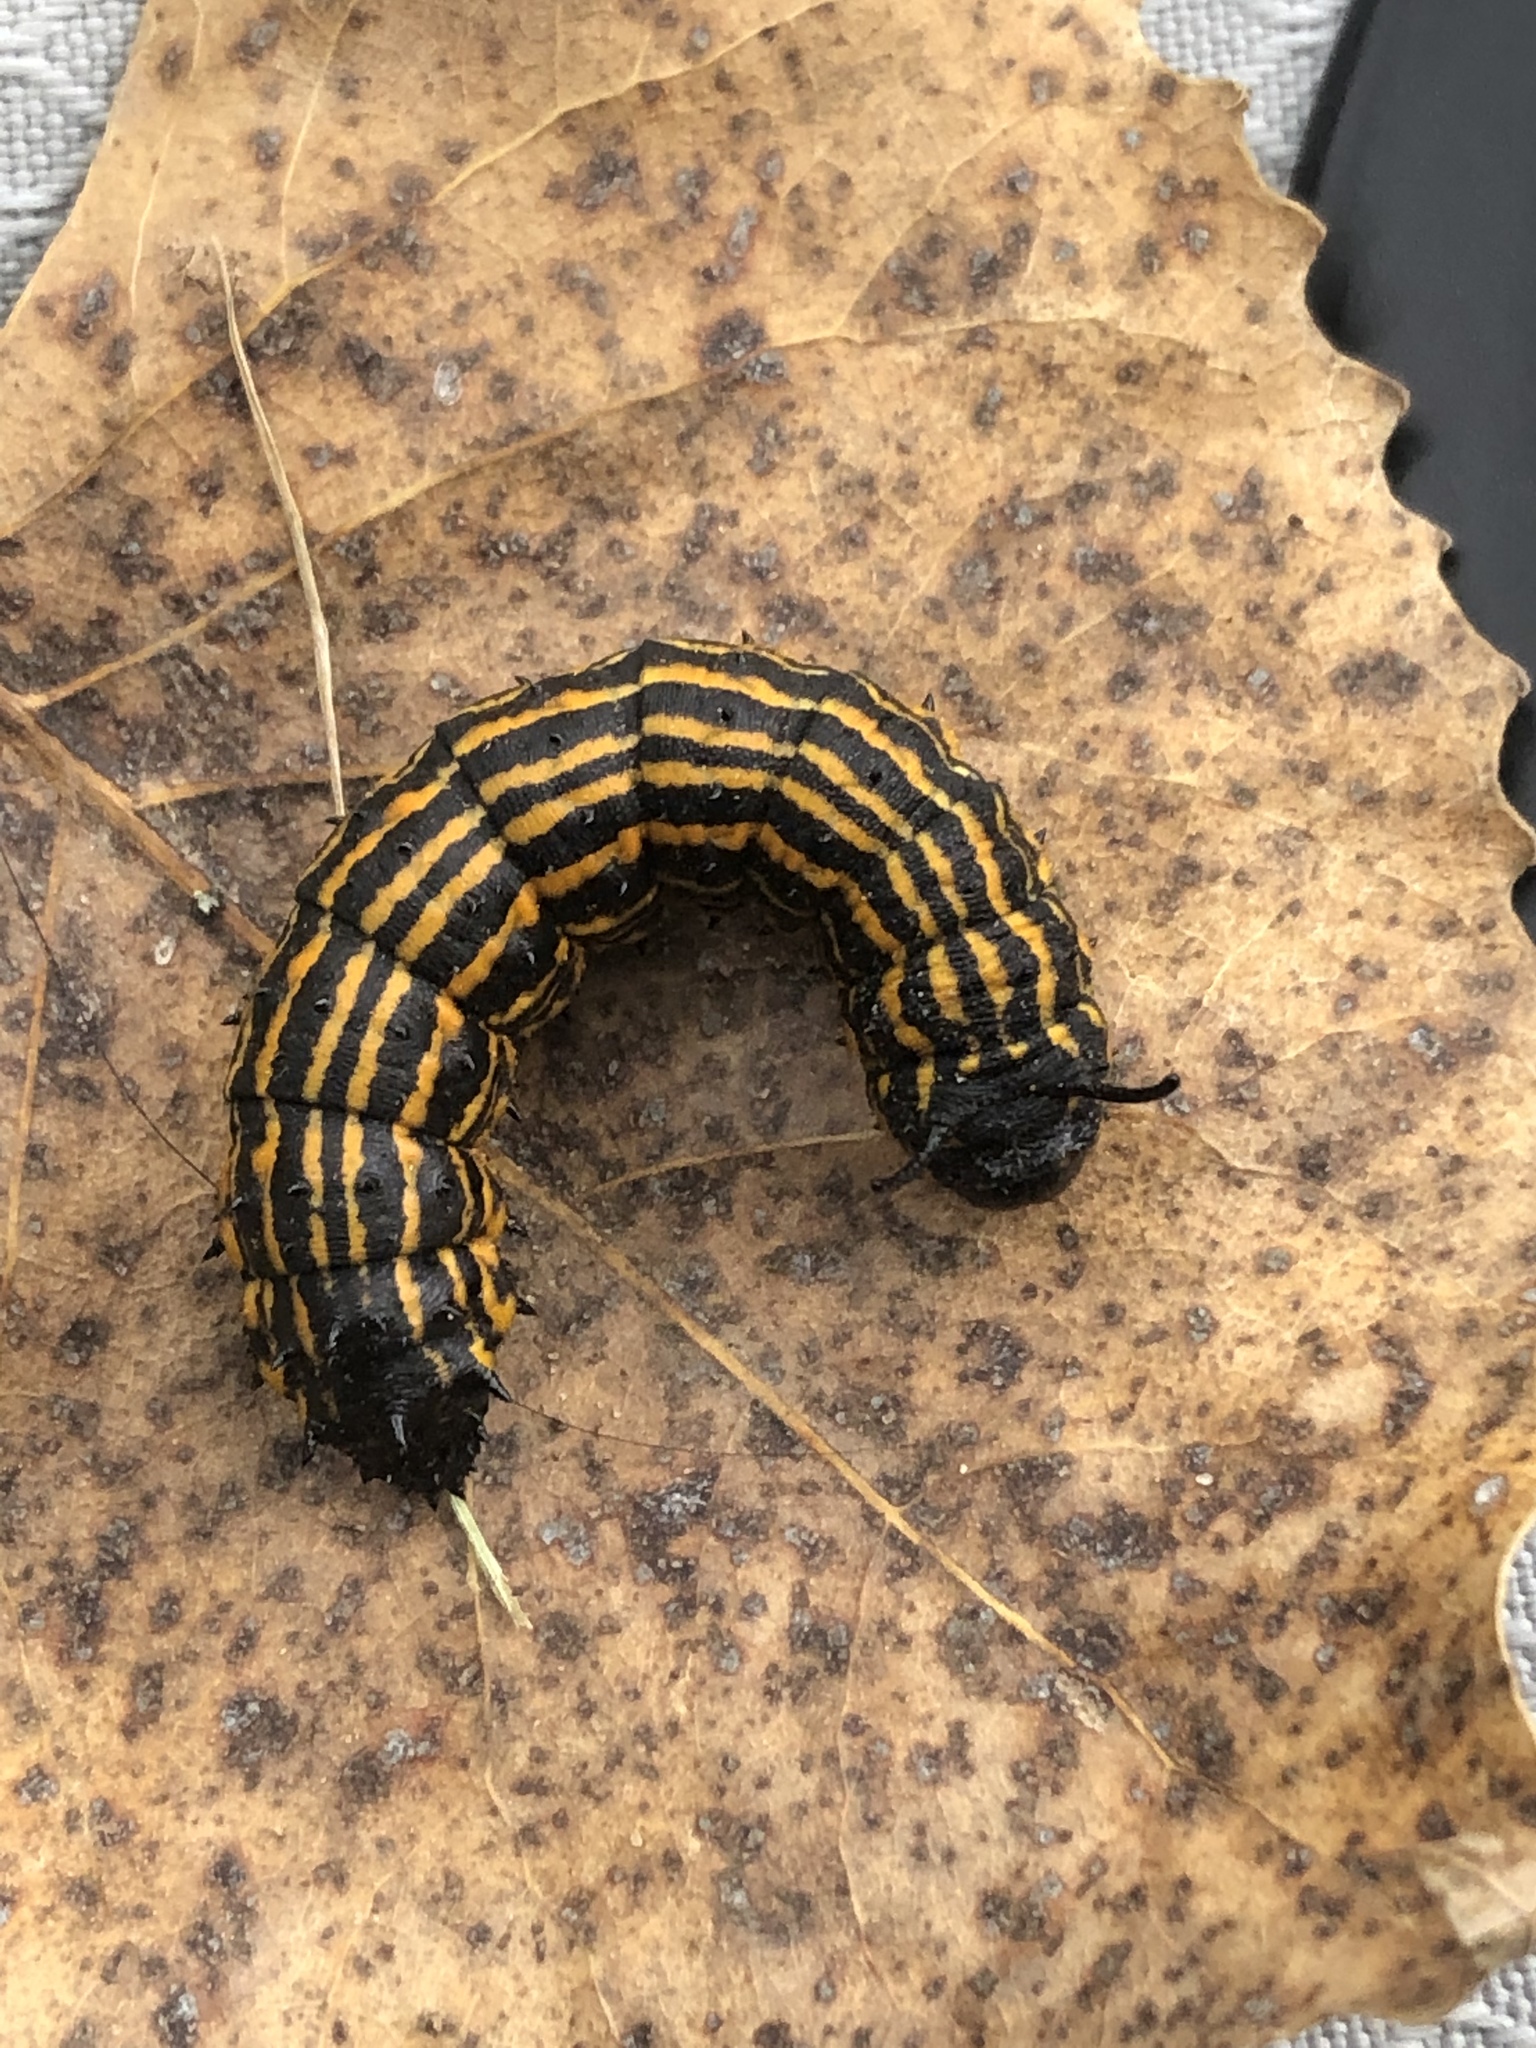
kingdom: Animalia
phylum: Arthropoda
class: Insecta
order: Lepidoptera
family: Saturniidae
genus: Anisota
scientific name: Anisota senatoria
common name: Orange-striped oakworm moth
